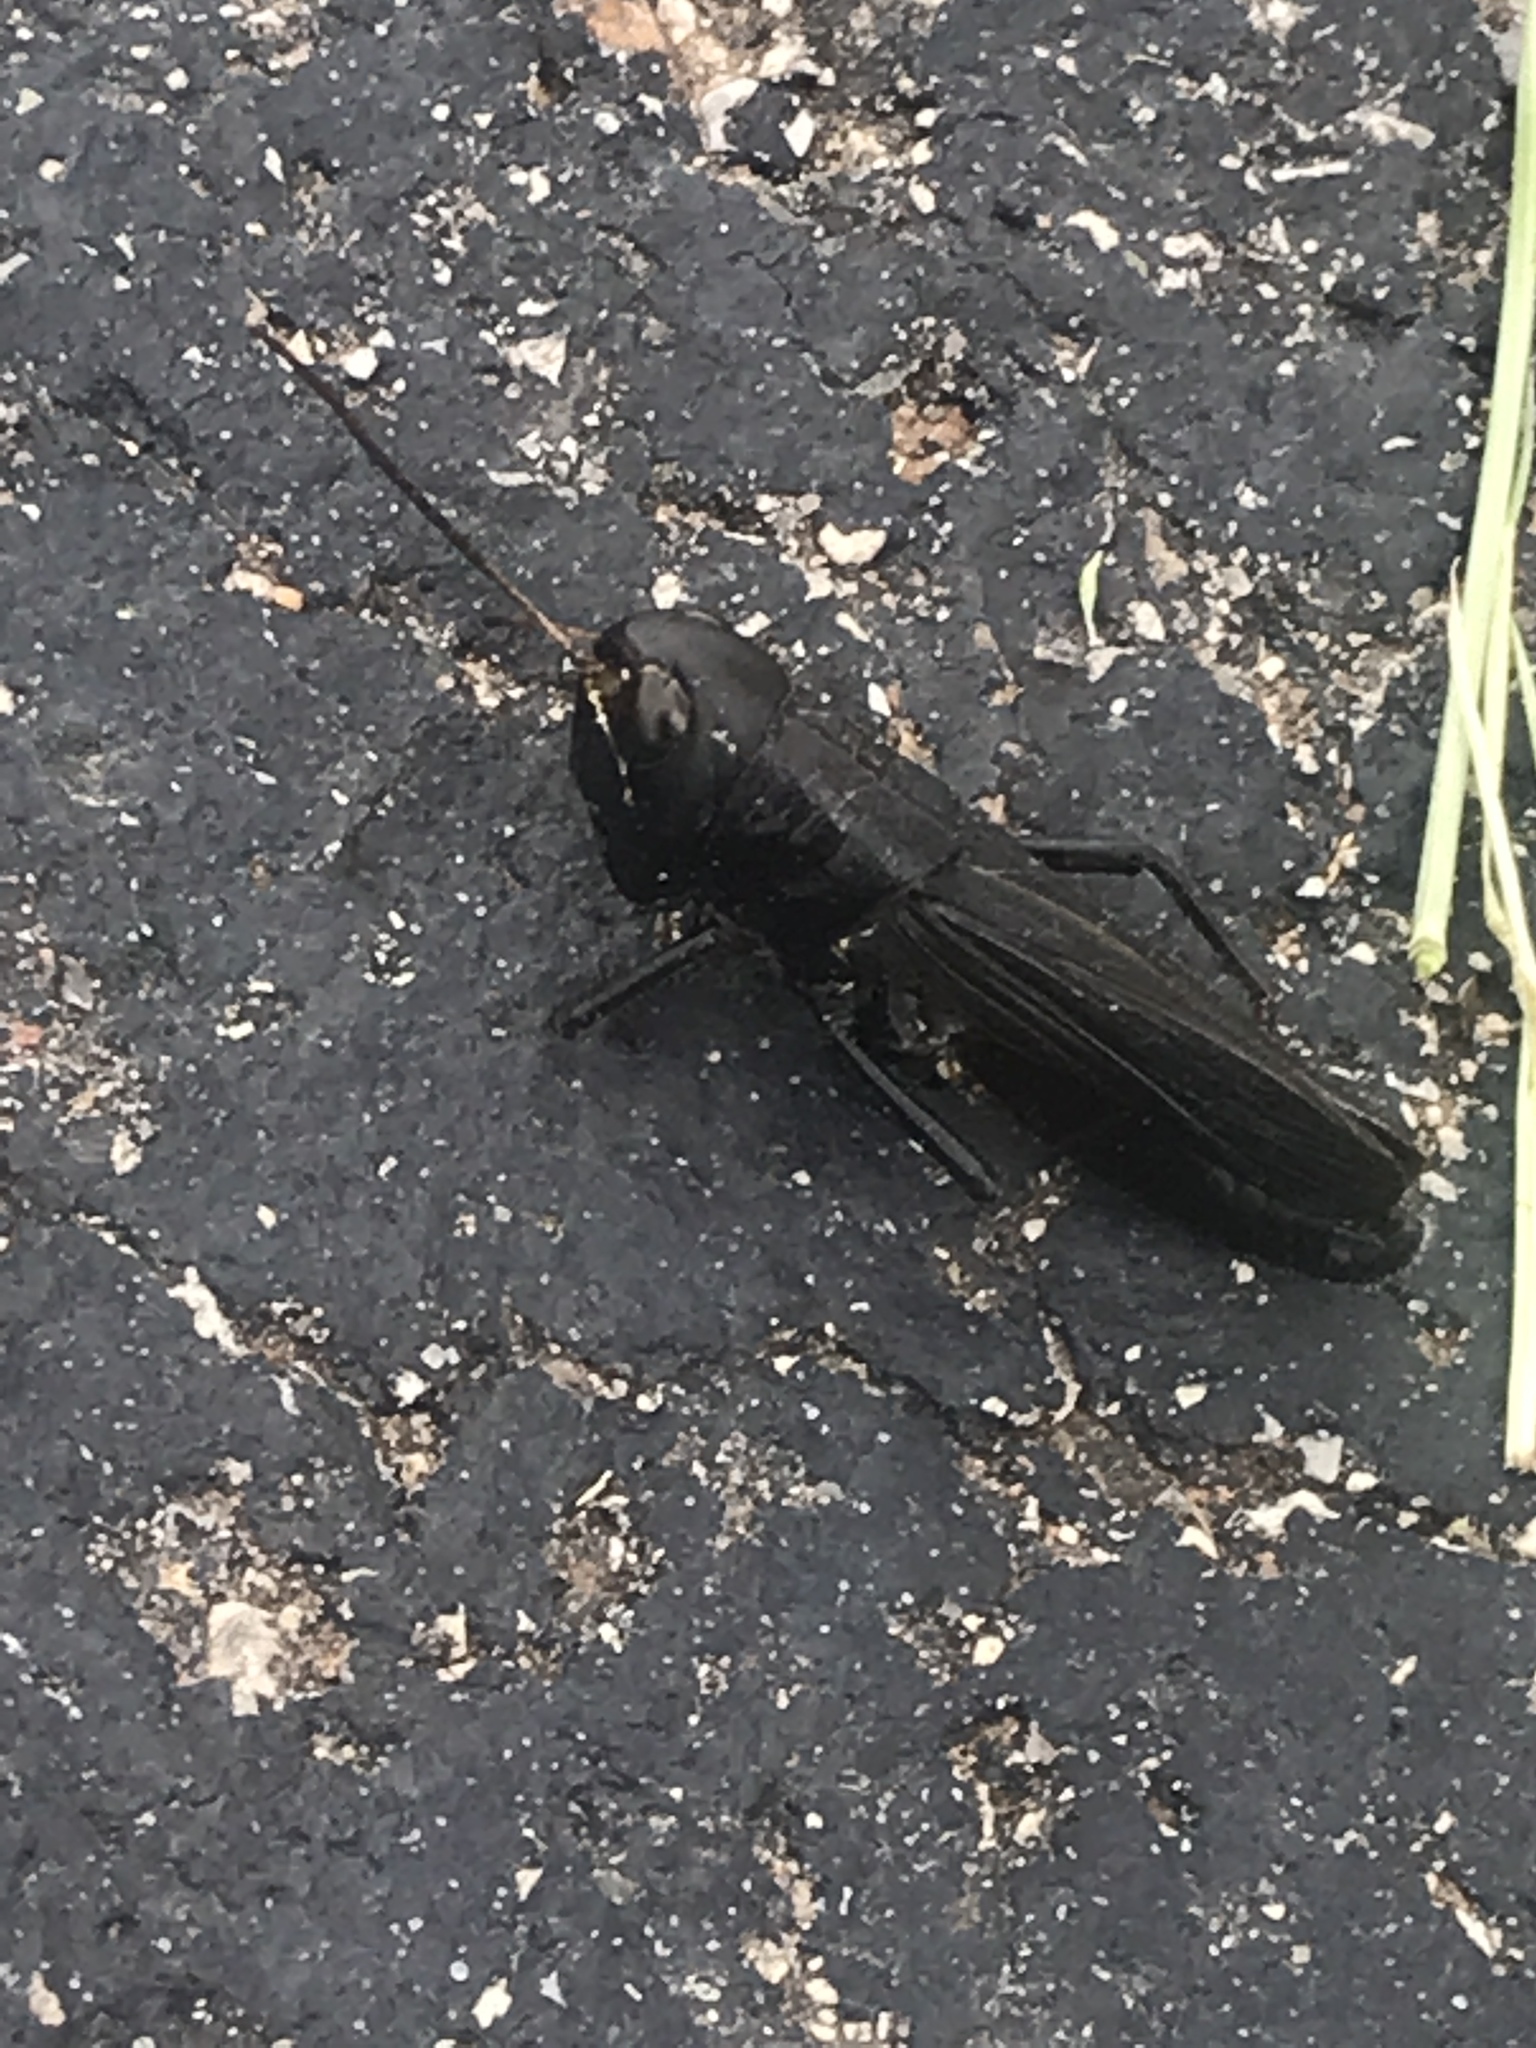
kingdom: Animalia
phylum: Arthropoda
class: Insecta
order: Orthoptera
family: Acrididae
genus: Boopedon
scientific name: Boopedon nubilum
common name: Ebony grasshopper
